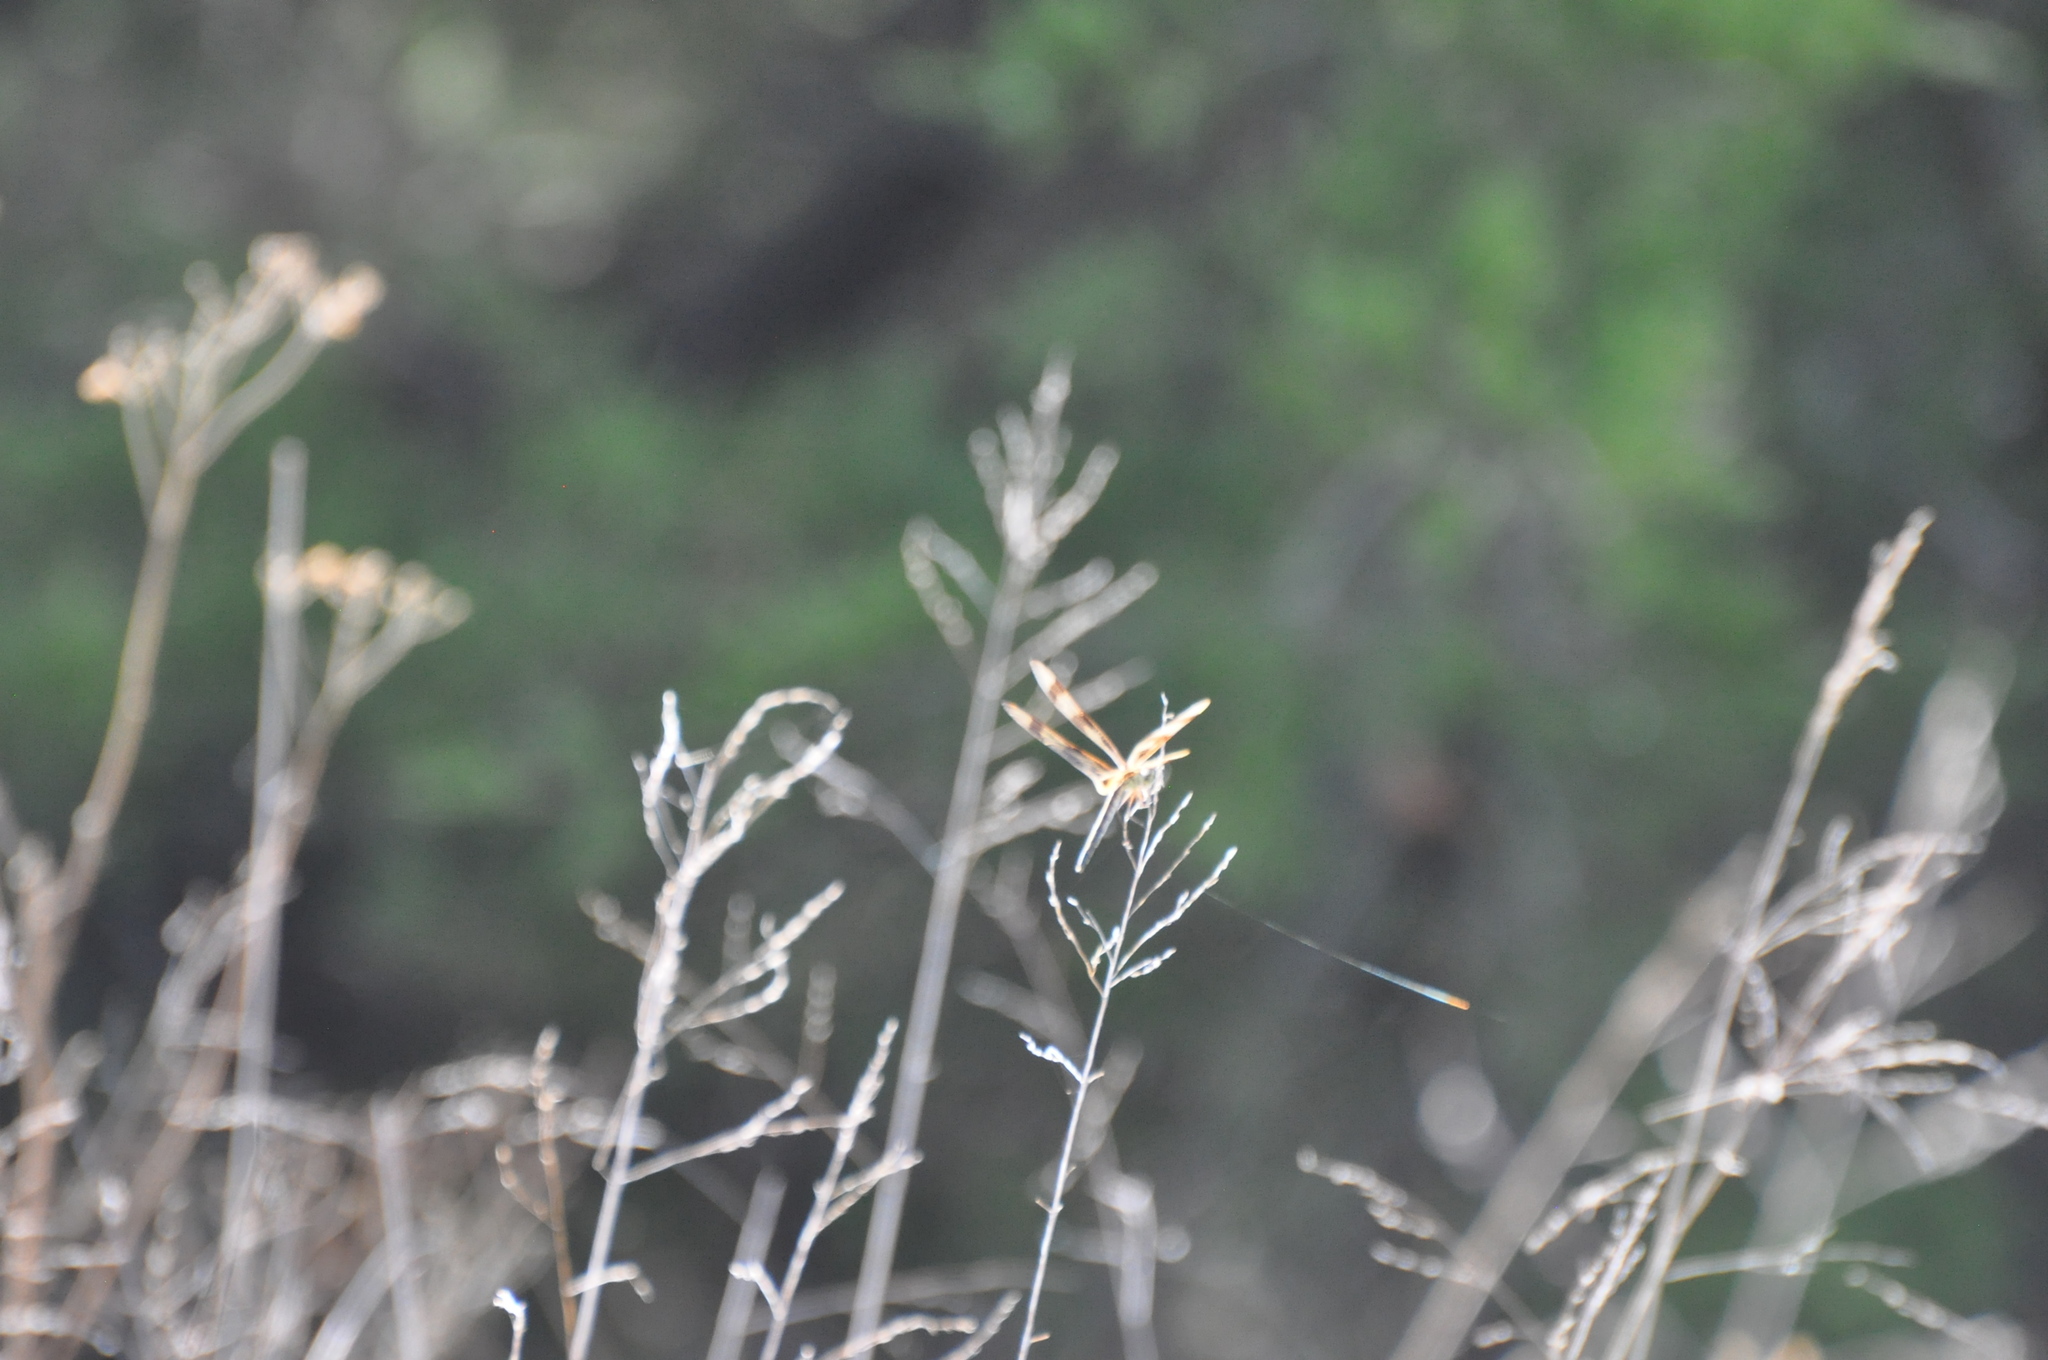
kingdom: Animalia
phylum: Arthropoda
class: Insecta
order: Odonata
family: Libellulidae
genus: Celithemis
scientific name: Celithemis eponina
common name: Halloween pennant
